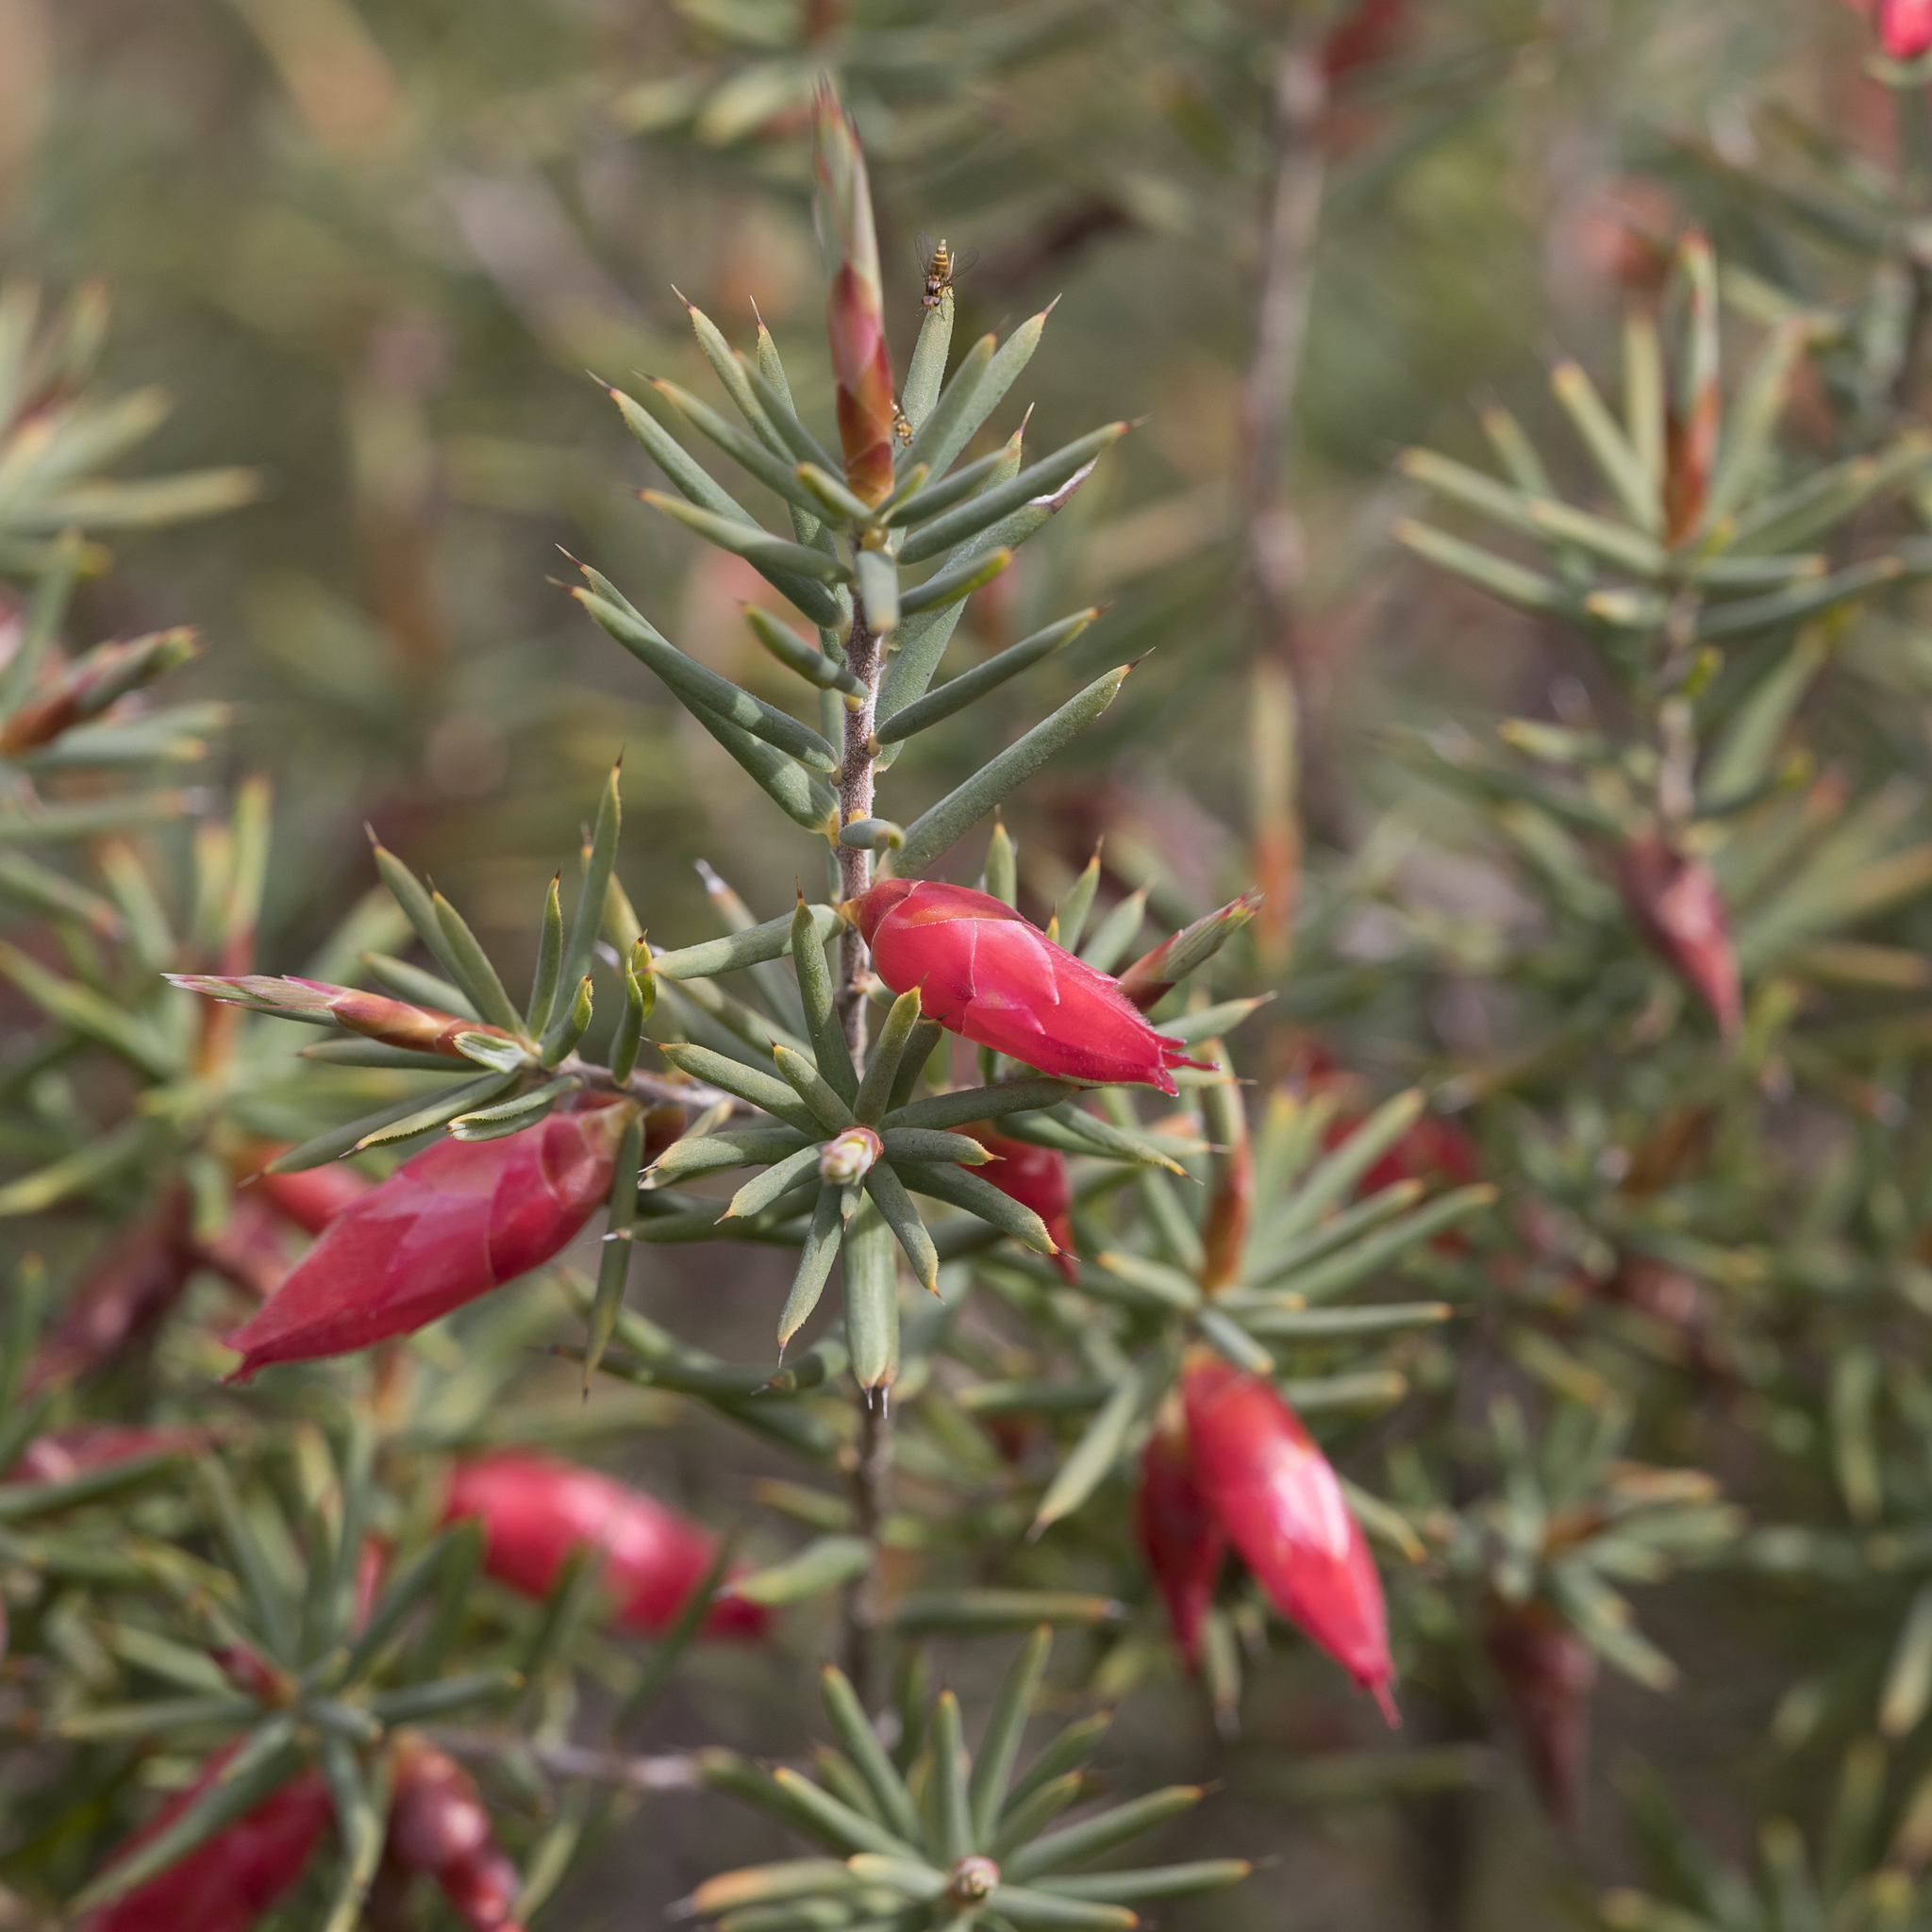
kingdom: Plantae
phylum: Tracheophyta
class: Magnoliopsida
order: Ericales
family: Ericaceae
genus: Stenanthera
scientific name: Stenanthera conostephioides
